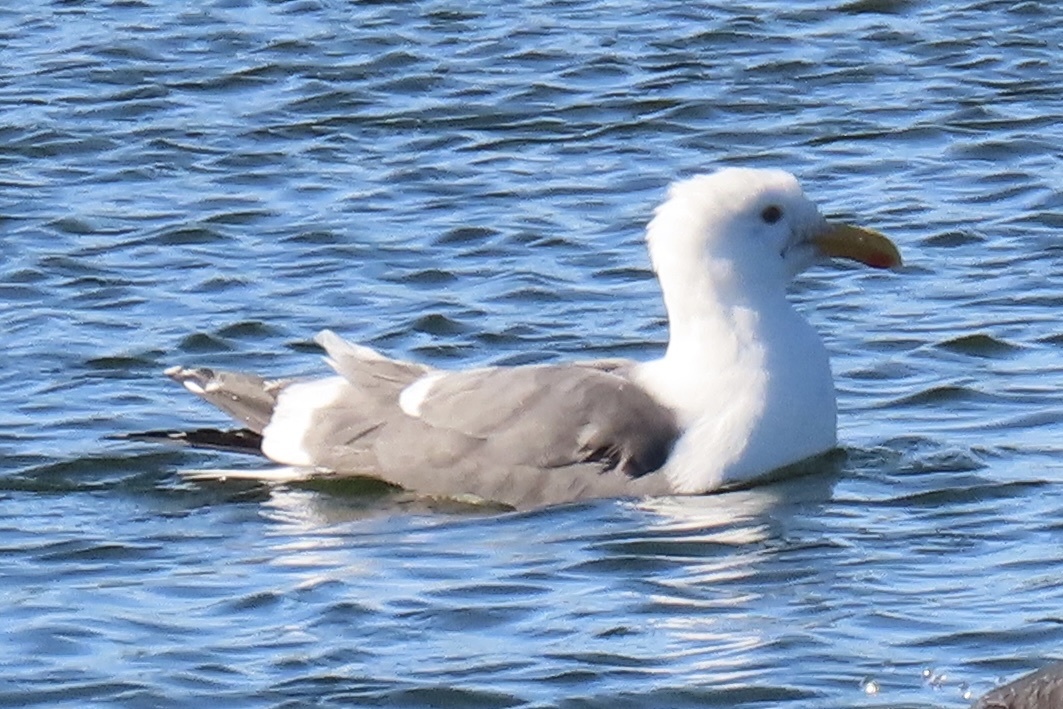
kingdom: Animalia
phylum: Chordata
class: Aves
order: Charadriiformes
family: Laridae
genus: Larus
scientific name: Larus occidentalis
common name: Western gull
